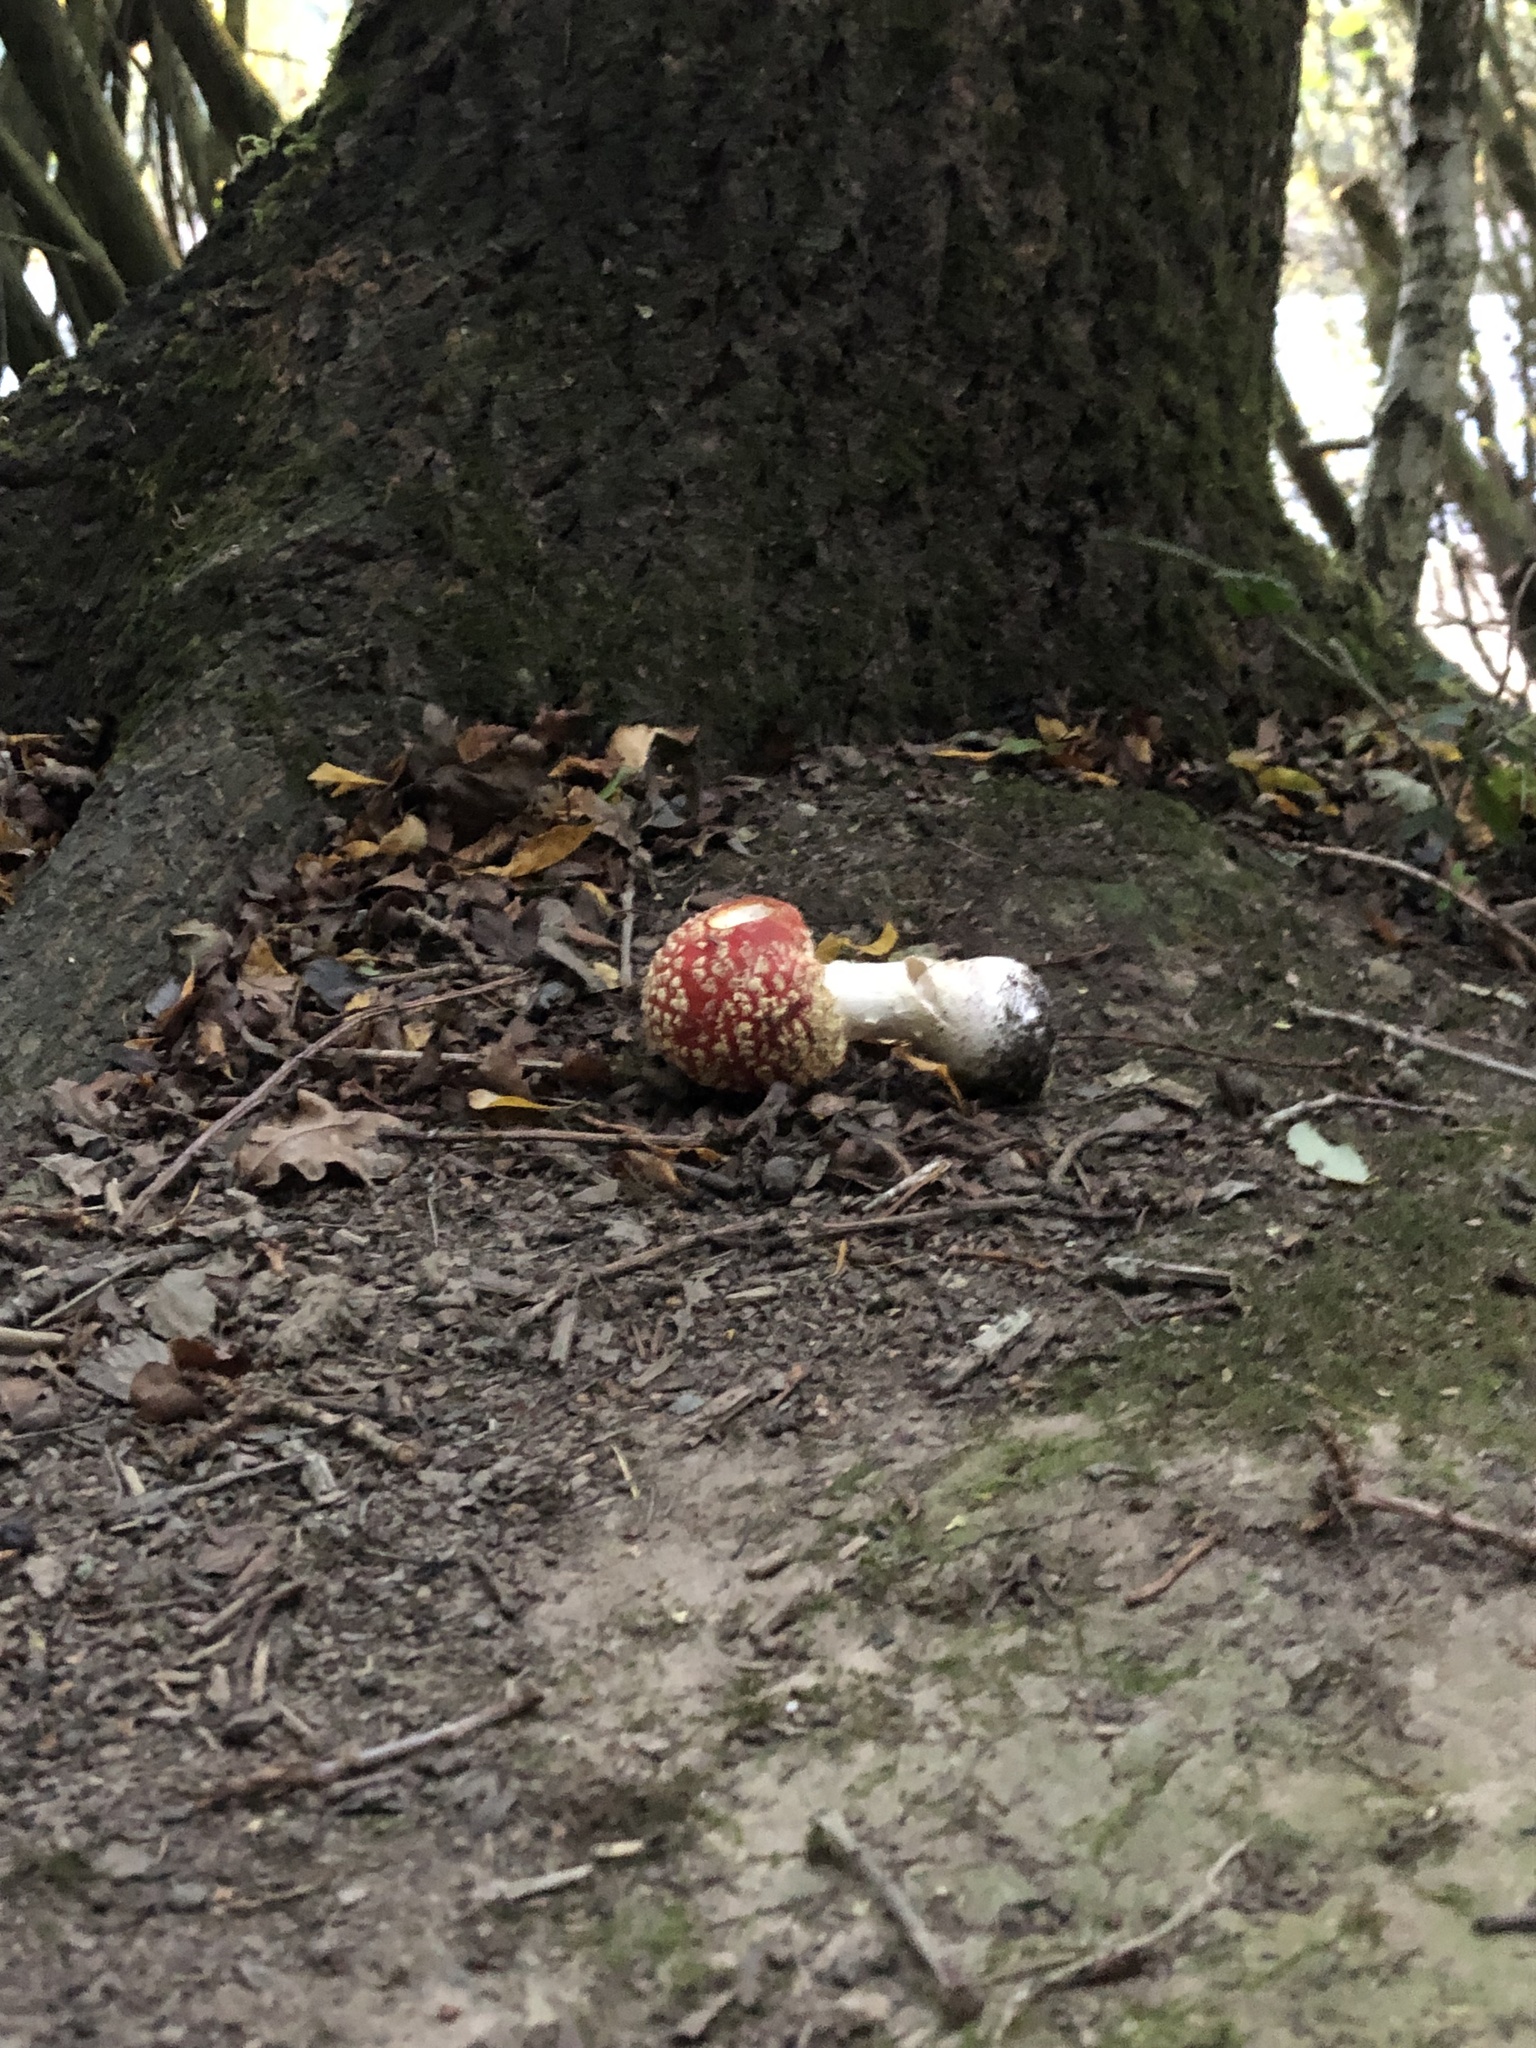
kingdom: Fungi
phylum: Basidiomycota
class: Agaricomycetes
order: Agaricales
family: Amanitaceae
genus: Amanita
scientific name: Amanita muscaria
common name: Fly agaric
